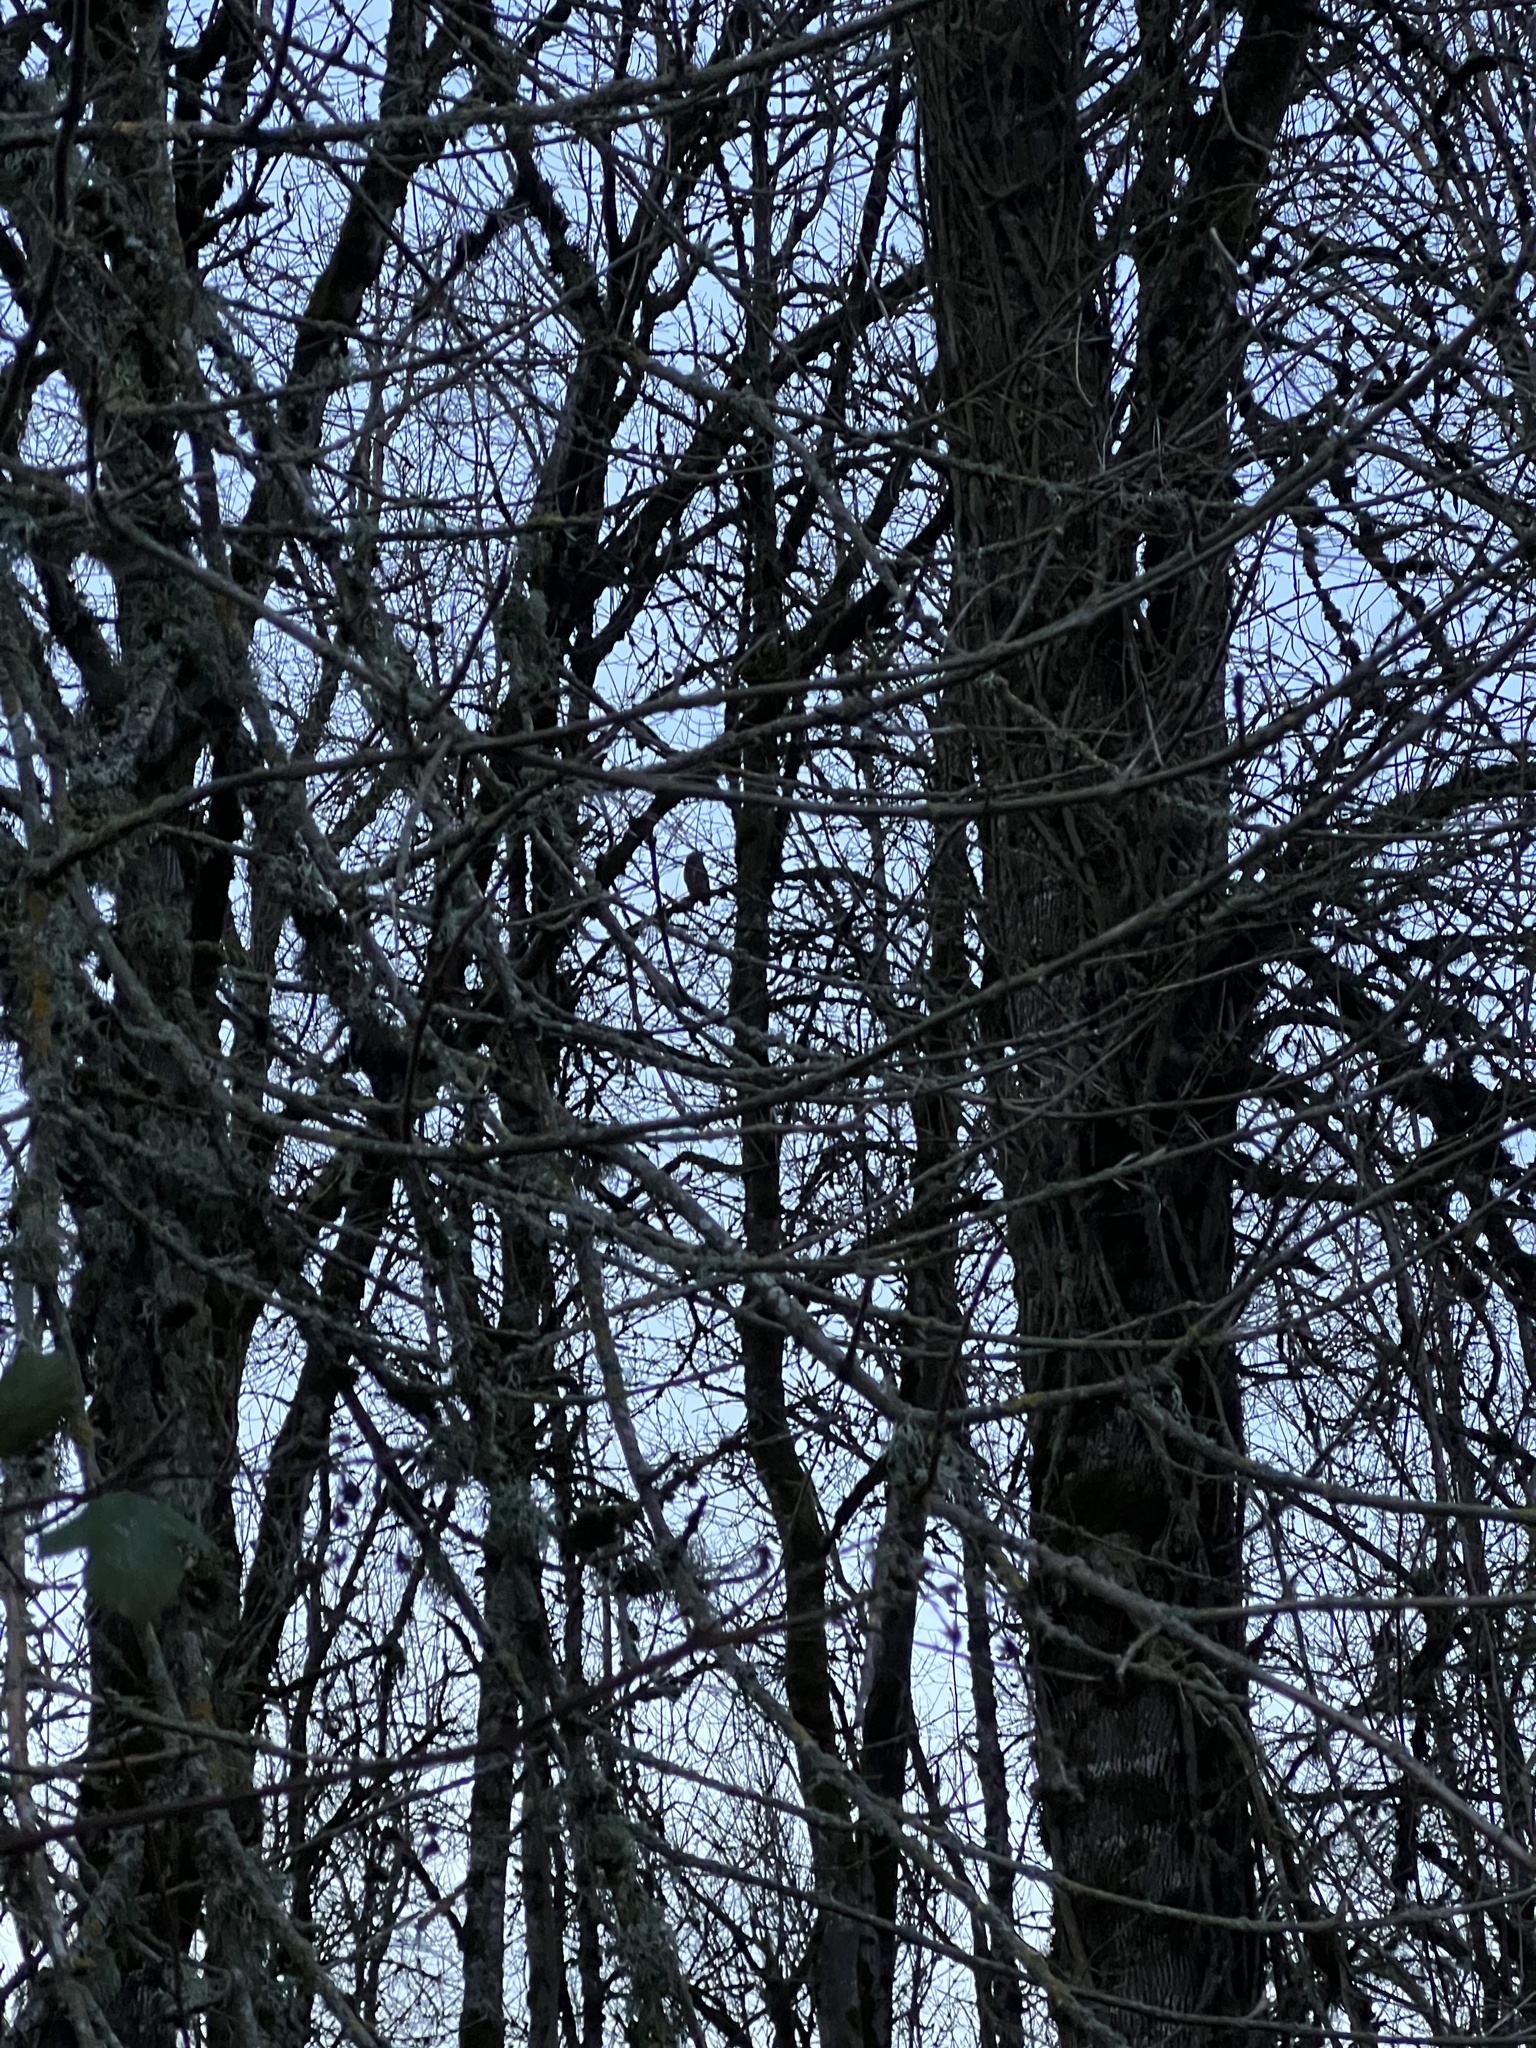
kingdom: Animalia
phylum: Chordata
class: Aves
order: Strigiformes
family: Strigidae
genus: Bubo
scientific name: Bubo virginianus
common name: Great horned owl
